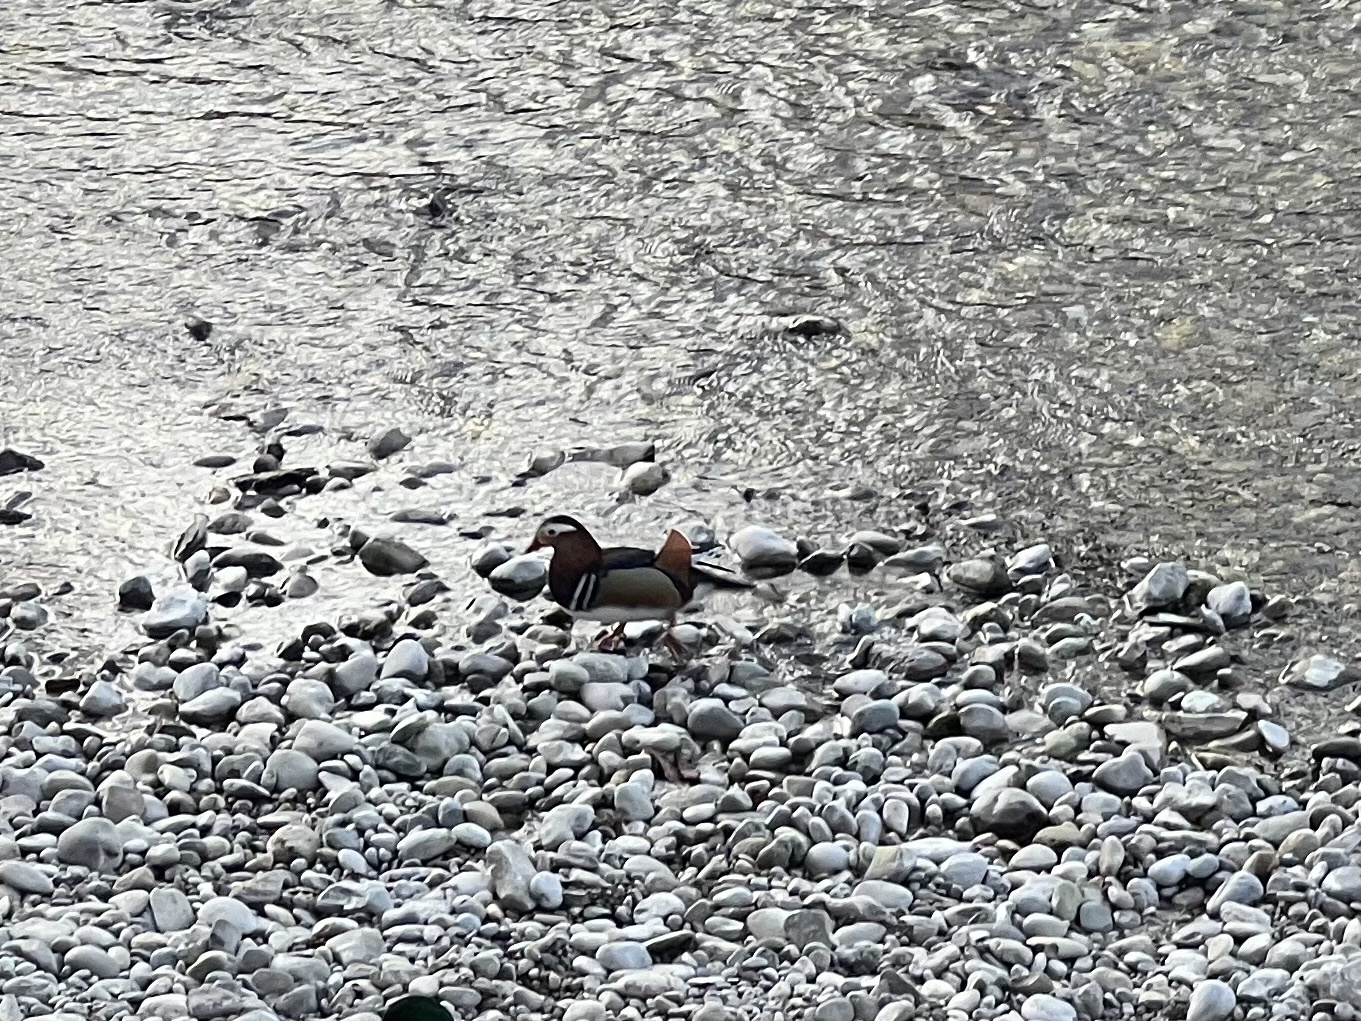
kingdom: Animalia
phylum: Chordata
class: Aves
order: Anseriformes
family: Anatidae
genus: Aix
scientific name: Aix galericulata
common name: Mandarin duck
